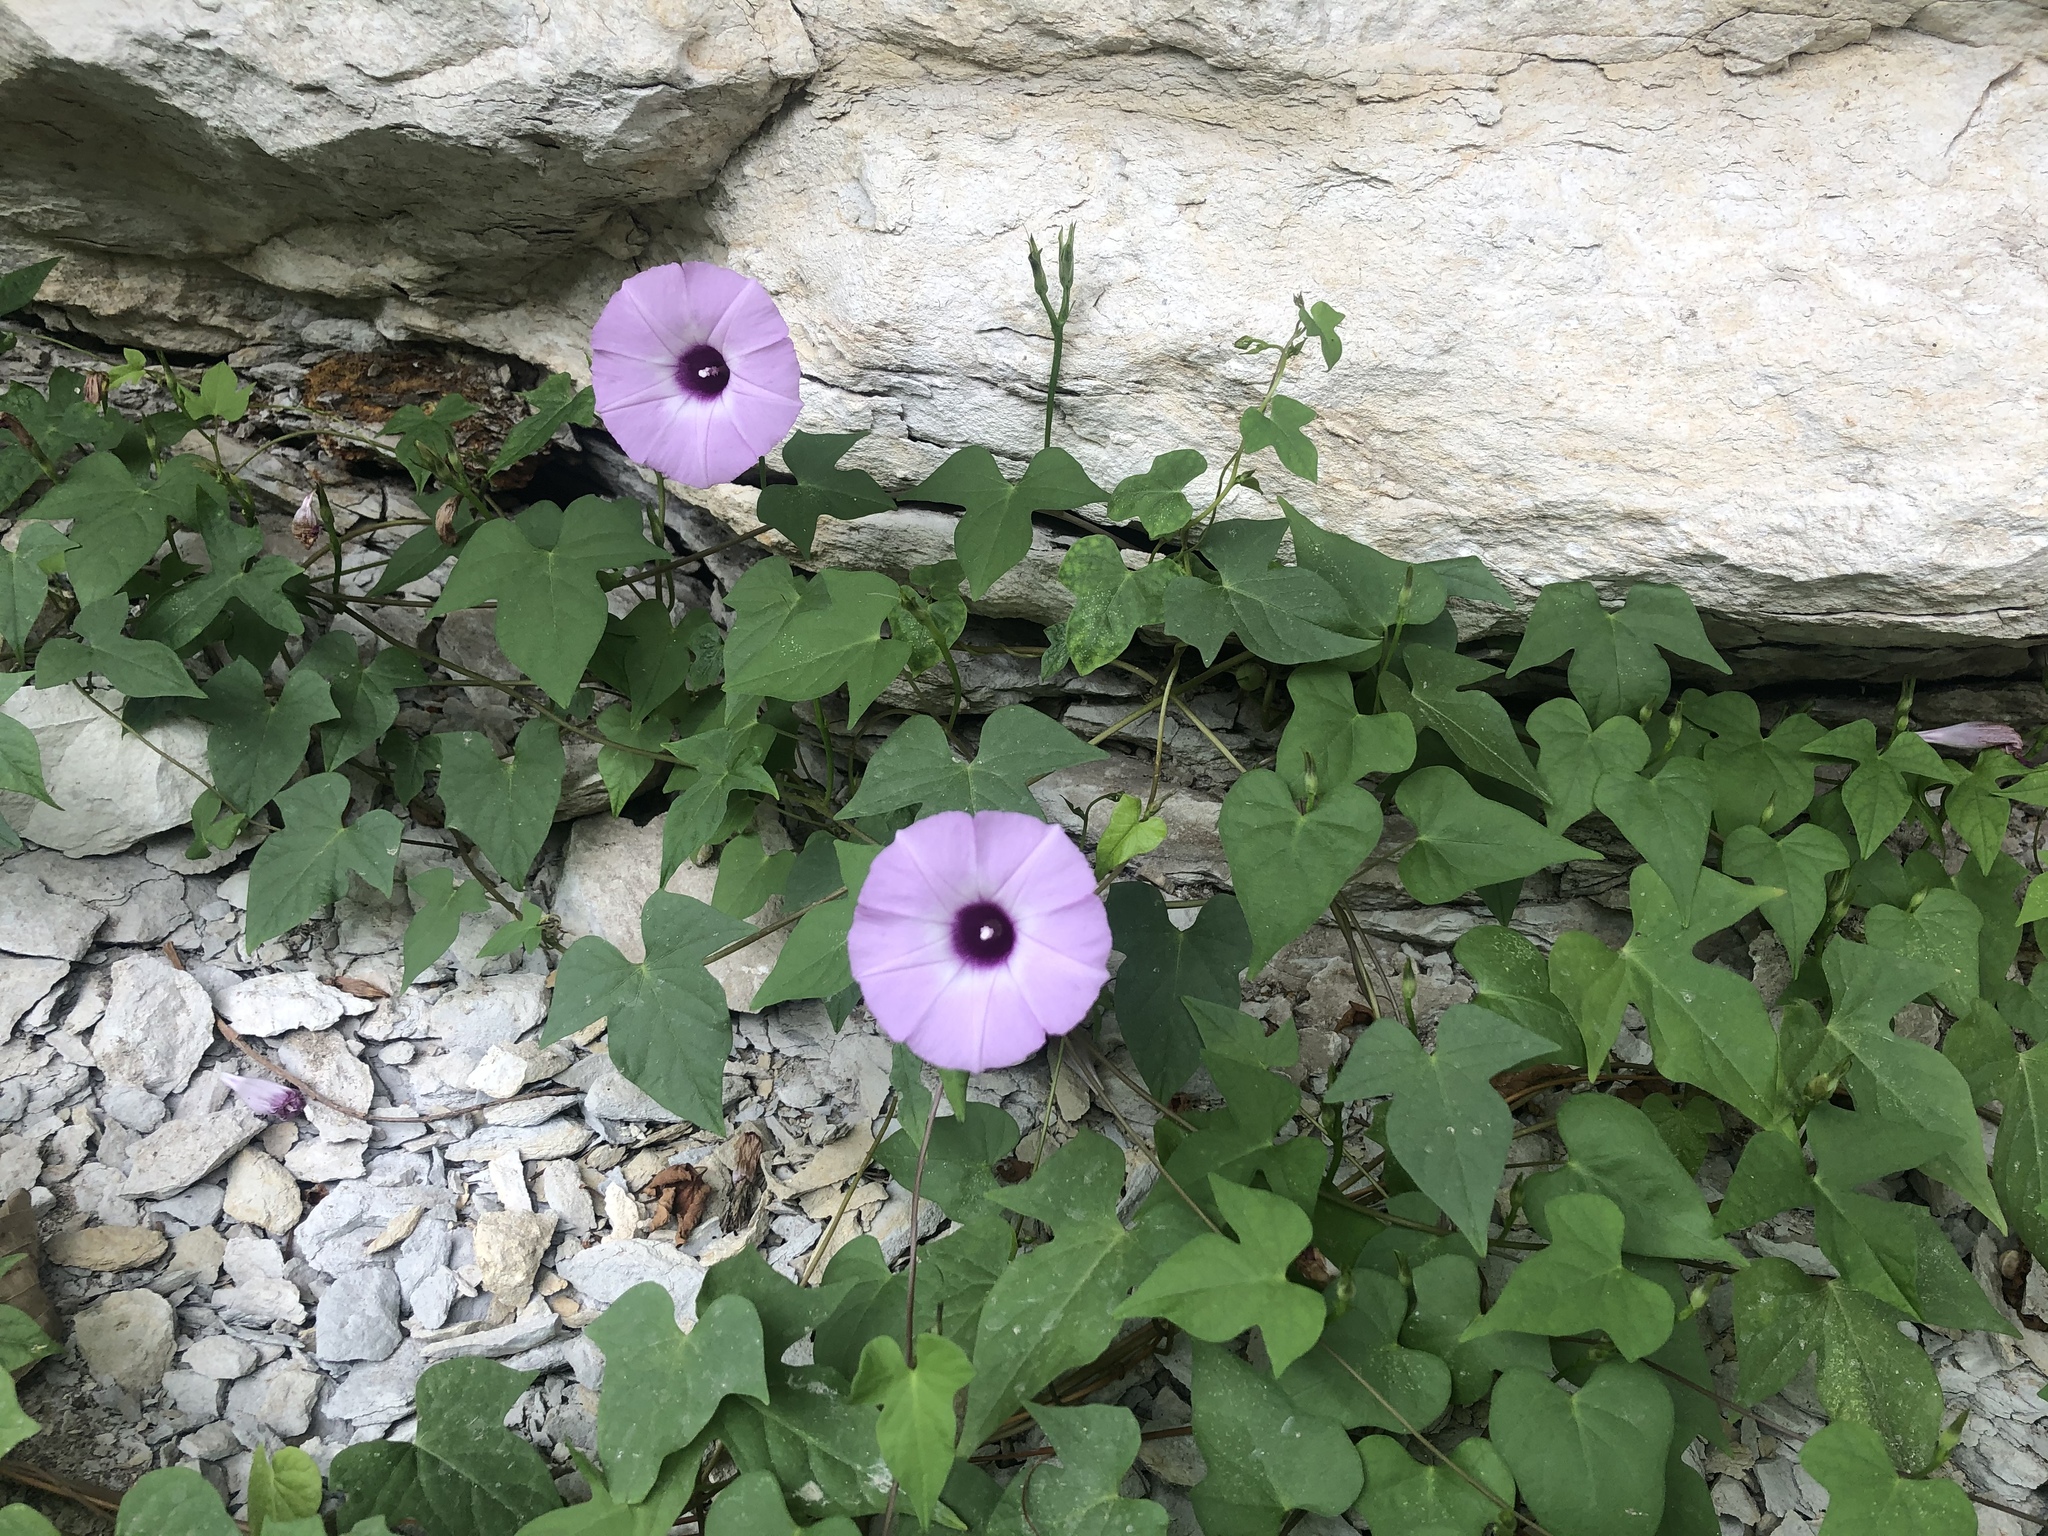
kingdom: Plantae
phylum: Tracheophyta
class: Magnoliopsida
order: Solanales
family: Convolvulaceae
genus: Ipomoea
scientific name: Ipomoea cordatotriloba
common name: Cotton morning glory
